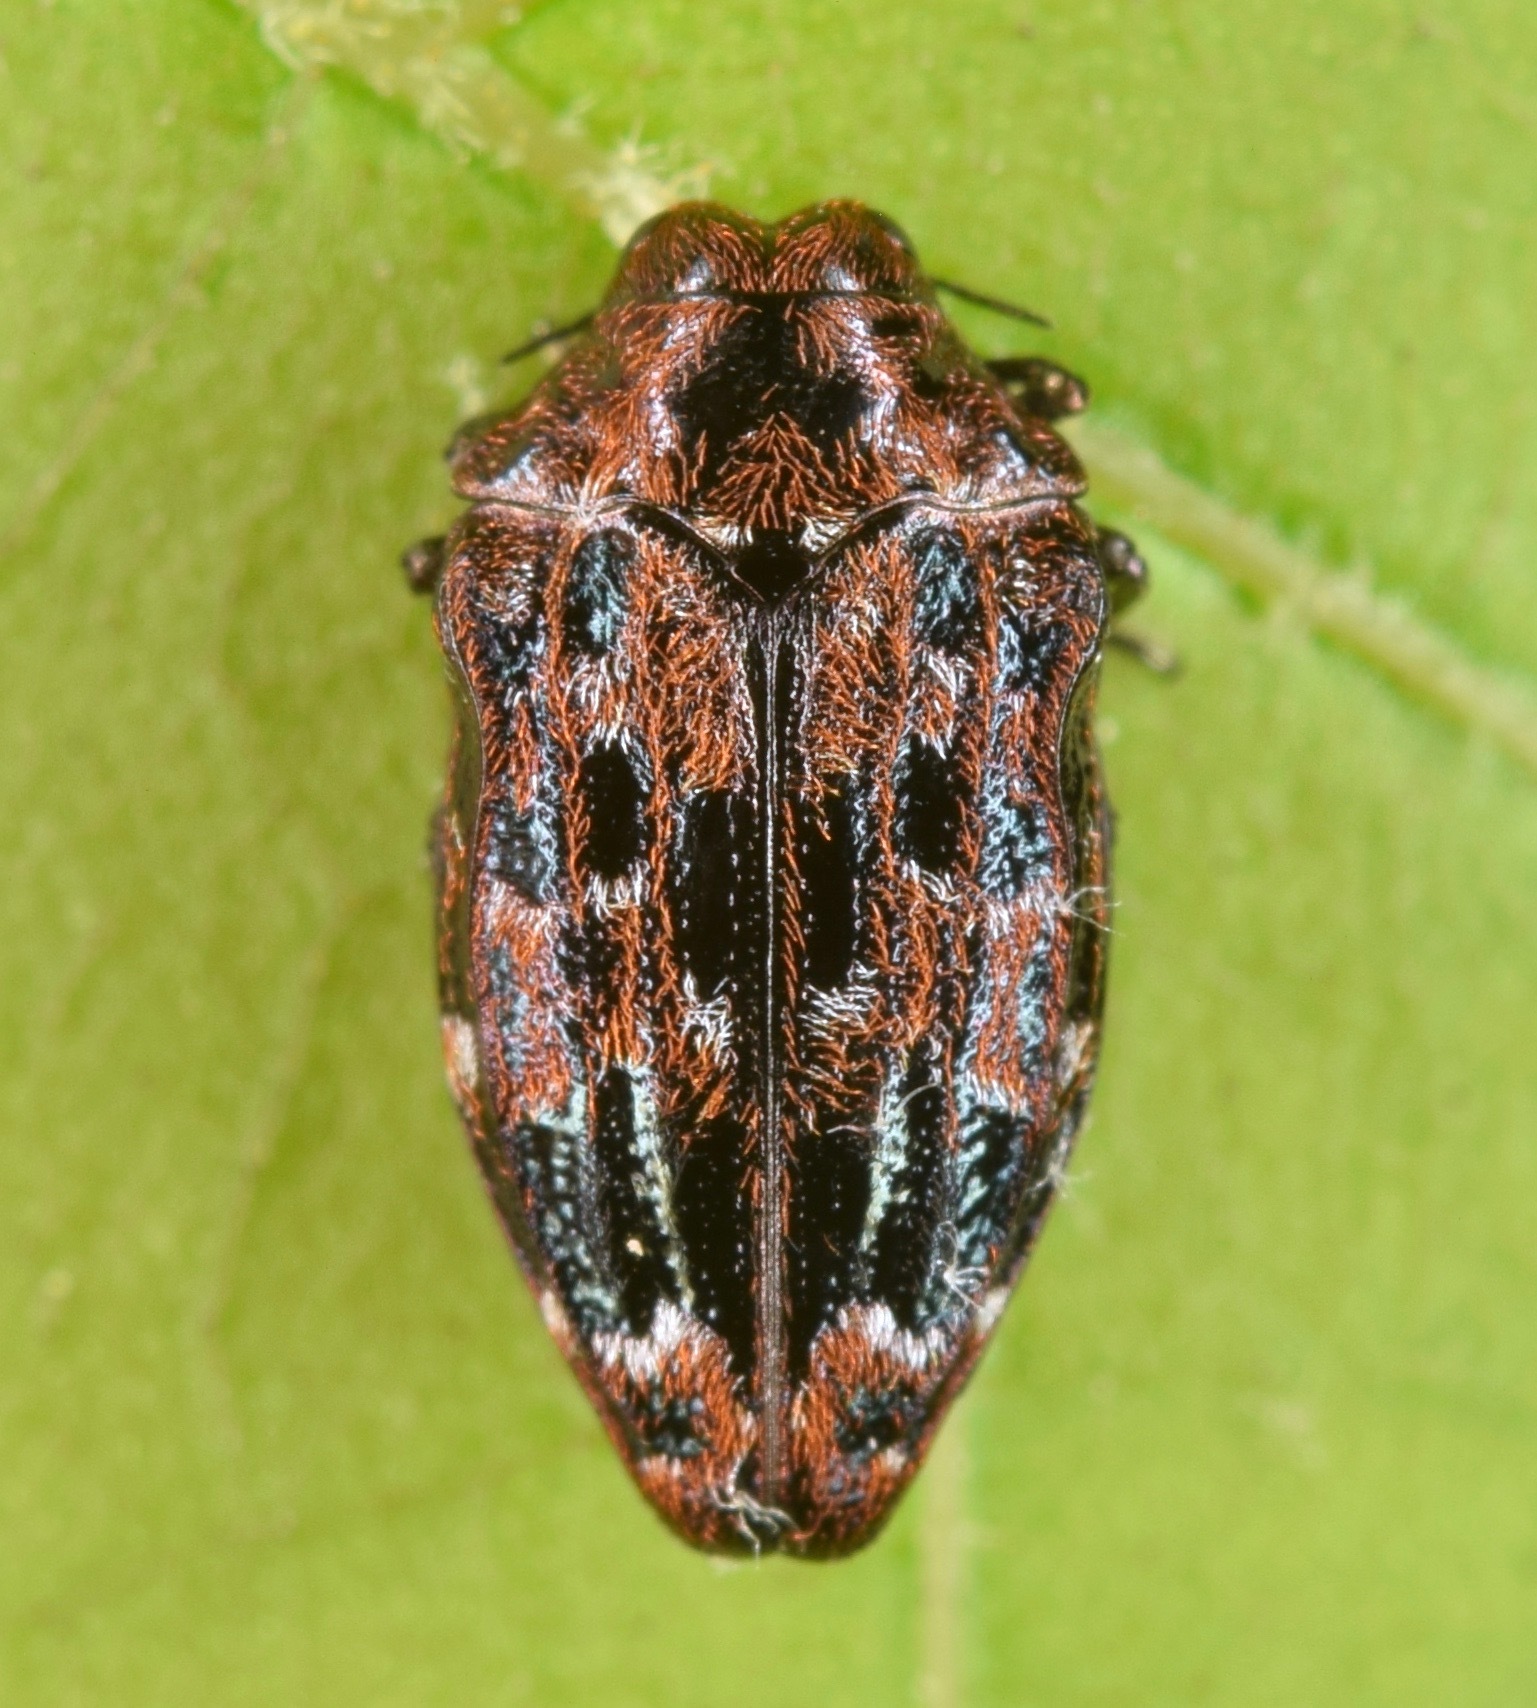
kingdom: Animalia
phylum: Arthropoda
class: Insecta
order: Coleoptera
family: Buprestidae
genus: Brachys
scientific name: Brachys ovatus
